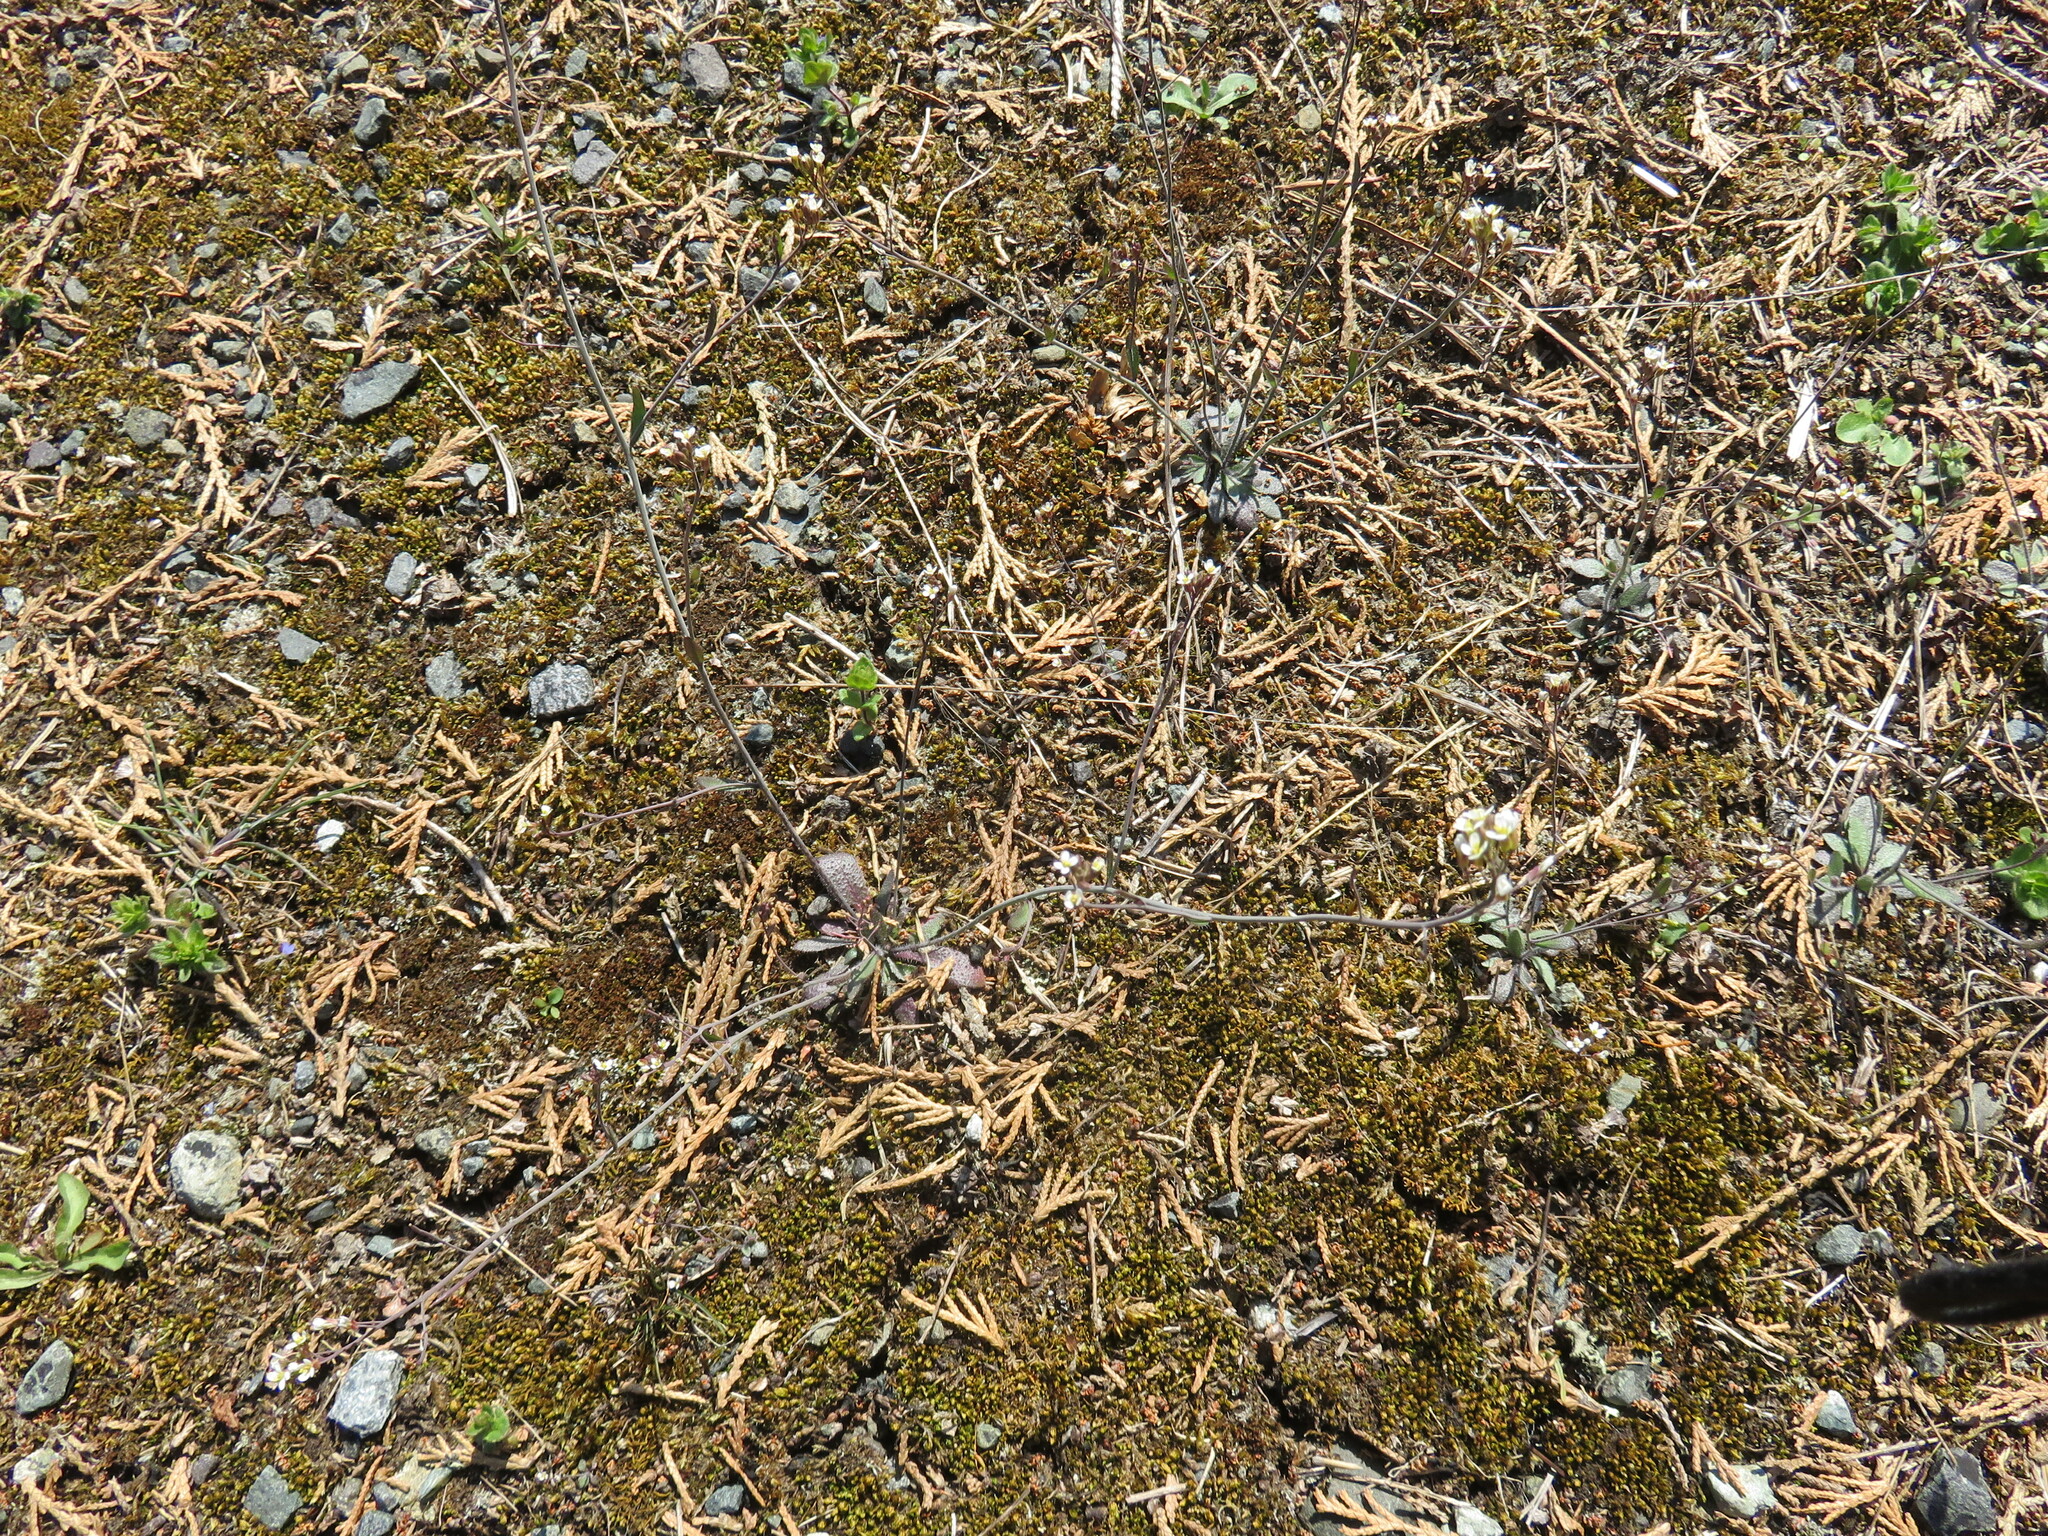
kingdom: Plantae
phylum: Tracheophyta
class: Magnoliopsida
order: Brassicales
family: Brassicaceae
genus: Arabidopsis
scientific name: Arabidopsis thaliana
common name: Thale cress
